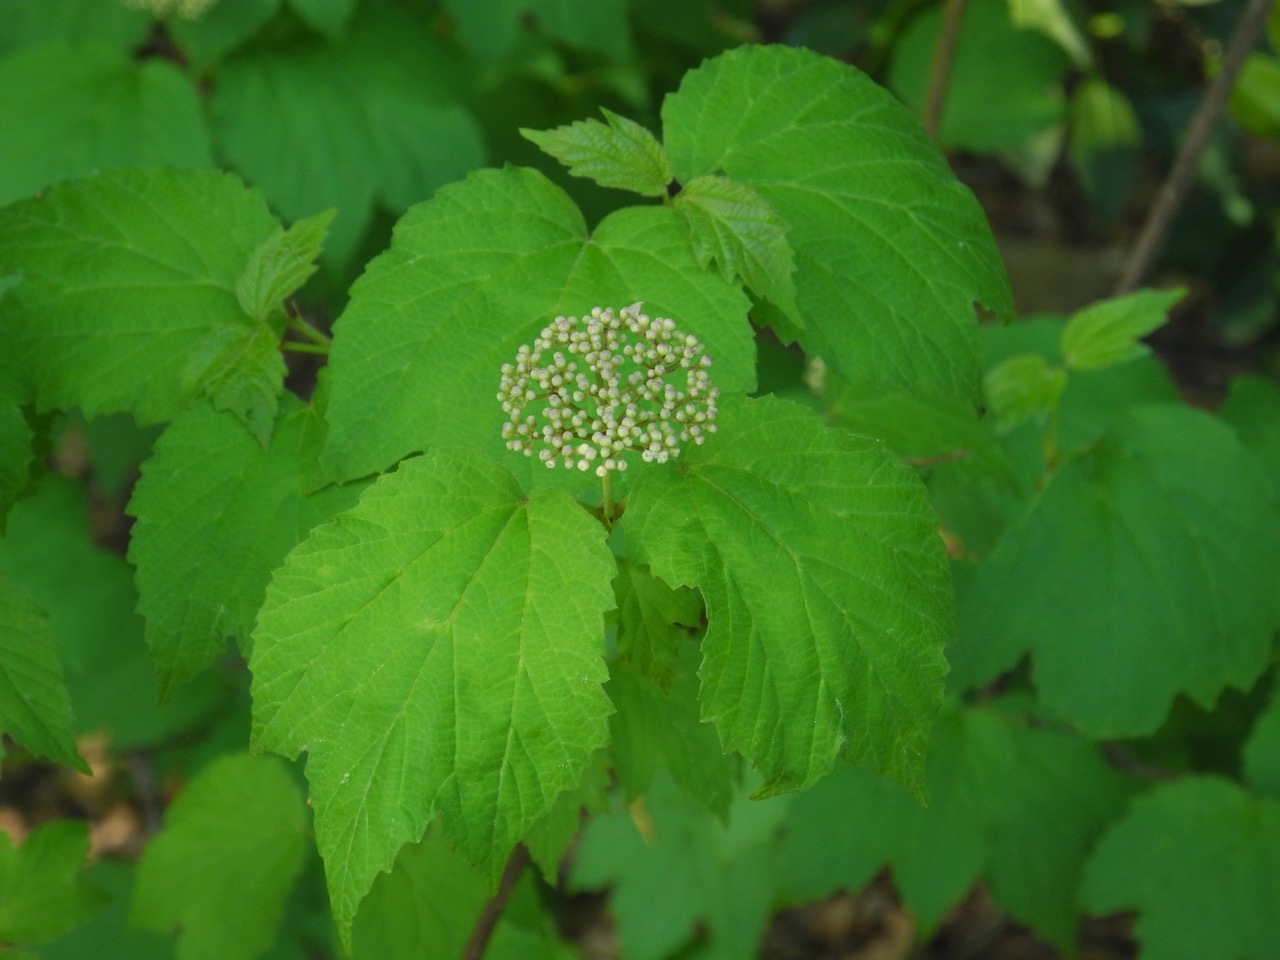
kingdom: Plantae
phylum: Tracheophyta
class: Magnoliopsida
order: Dipsacales
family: Viburnaceae
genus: Viburnum
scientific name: Viburnum acerifolium
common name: Dockmackie
